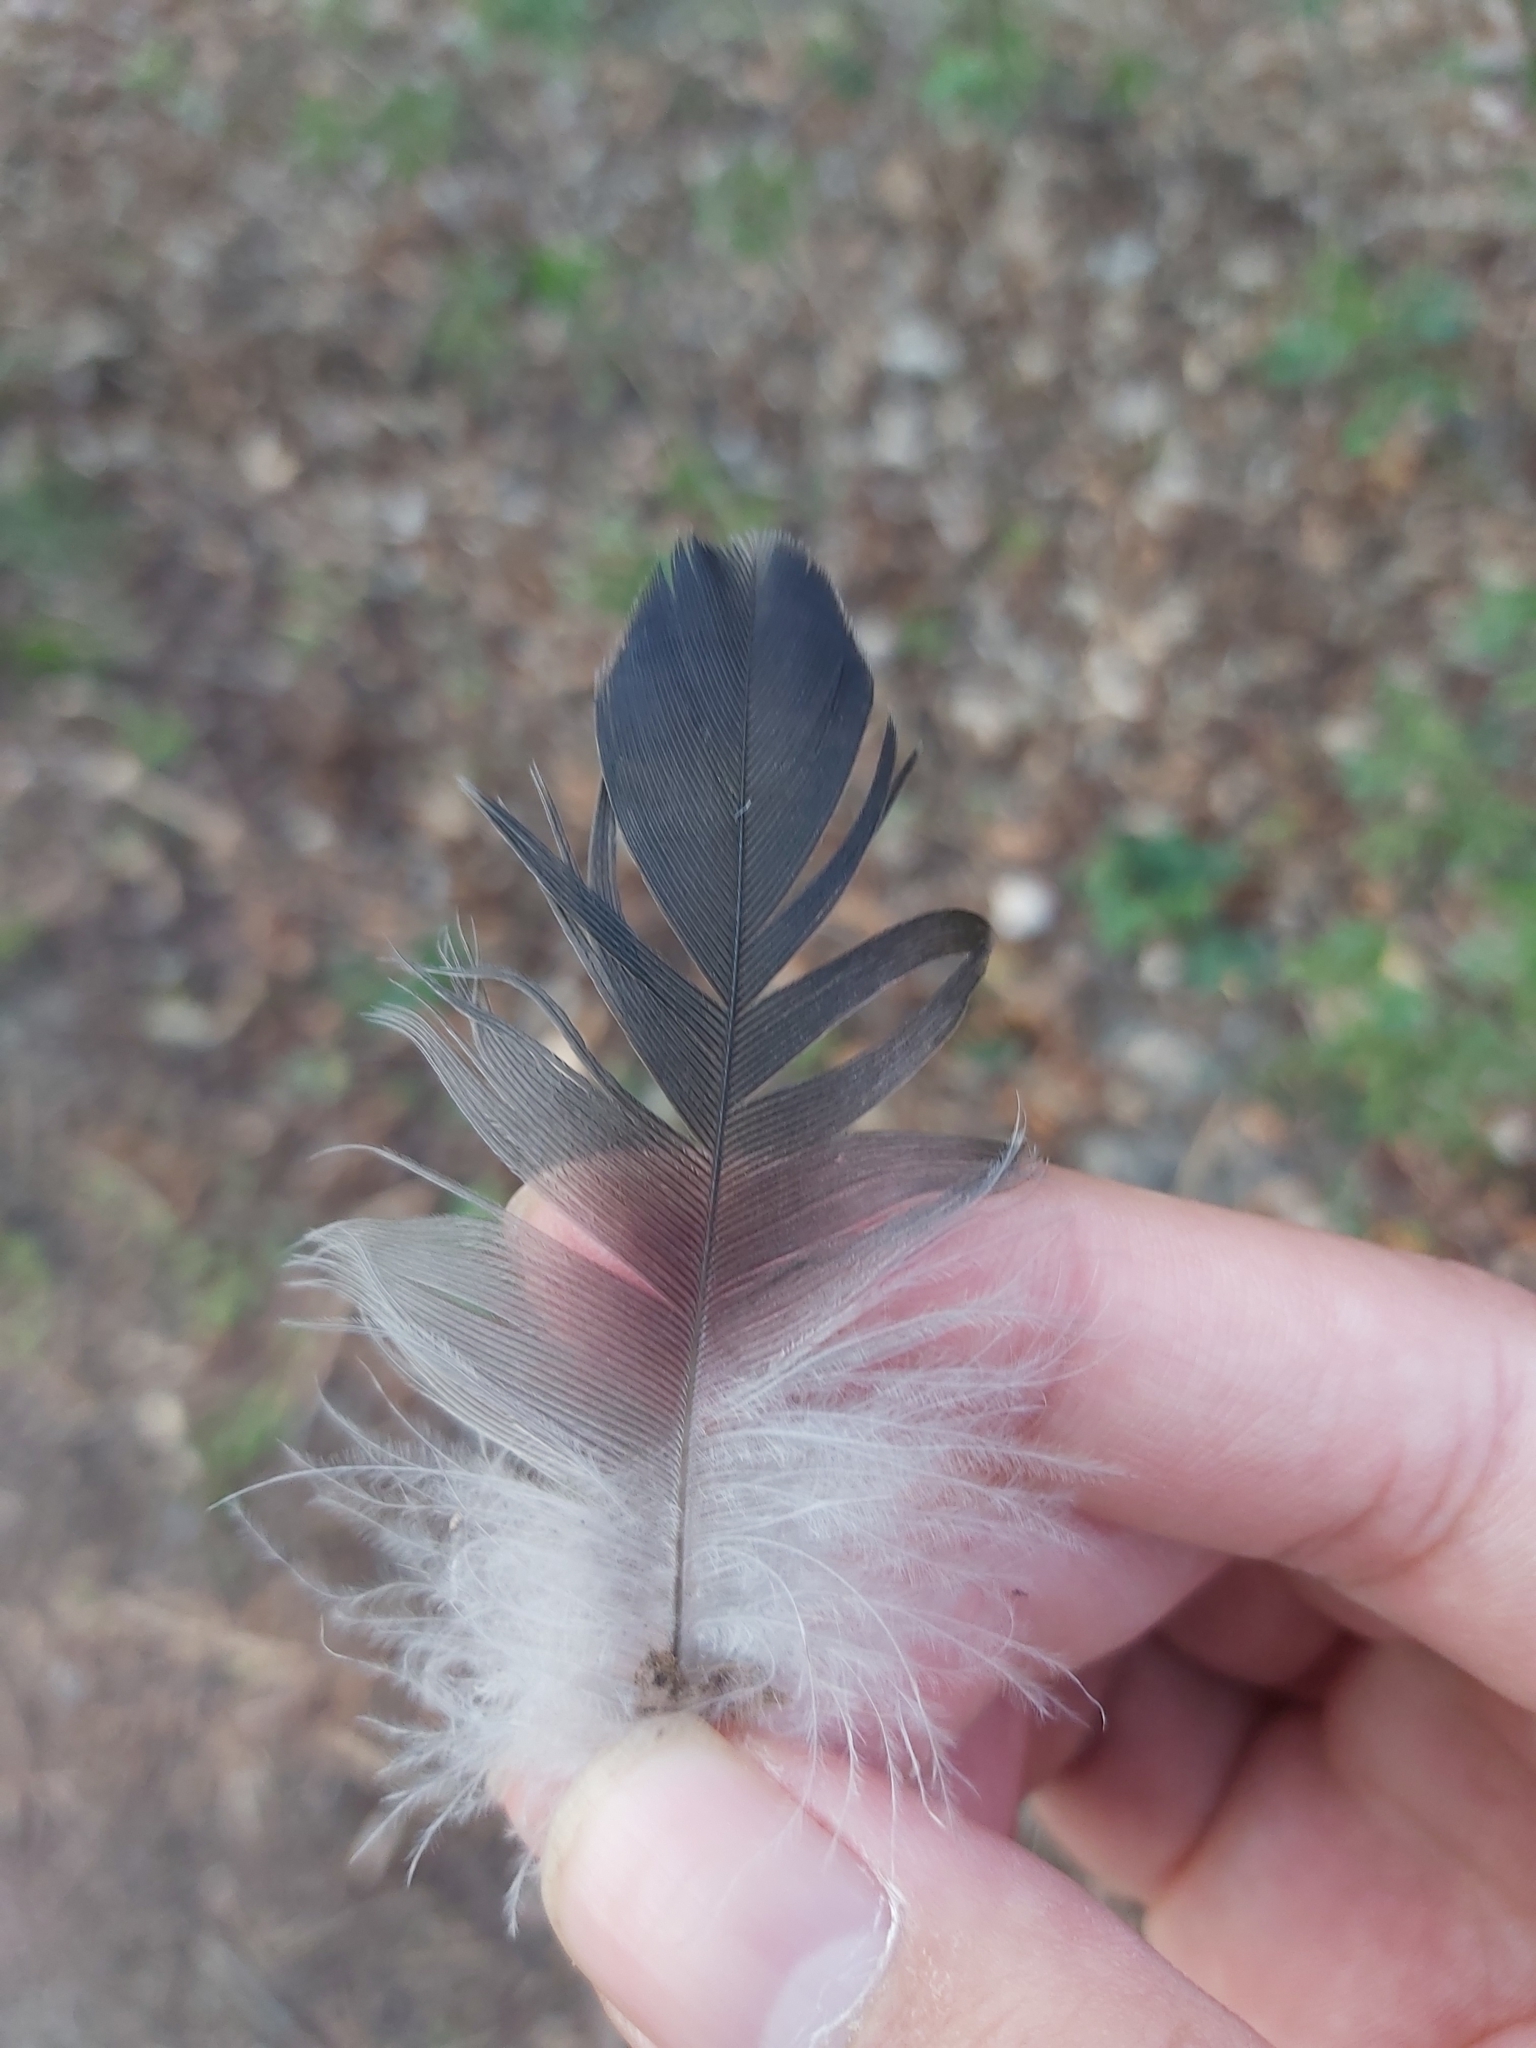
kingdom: Animalia
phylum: Chordata
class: Aves
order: Passeriformes
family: Corvidae
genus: Corvus
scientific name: Corvus cornix
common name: Hooded crow
